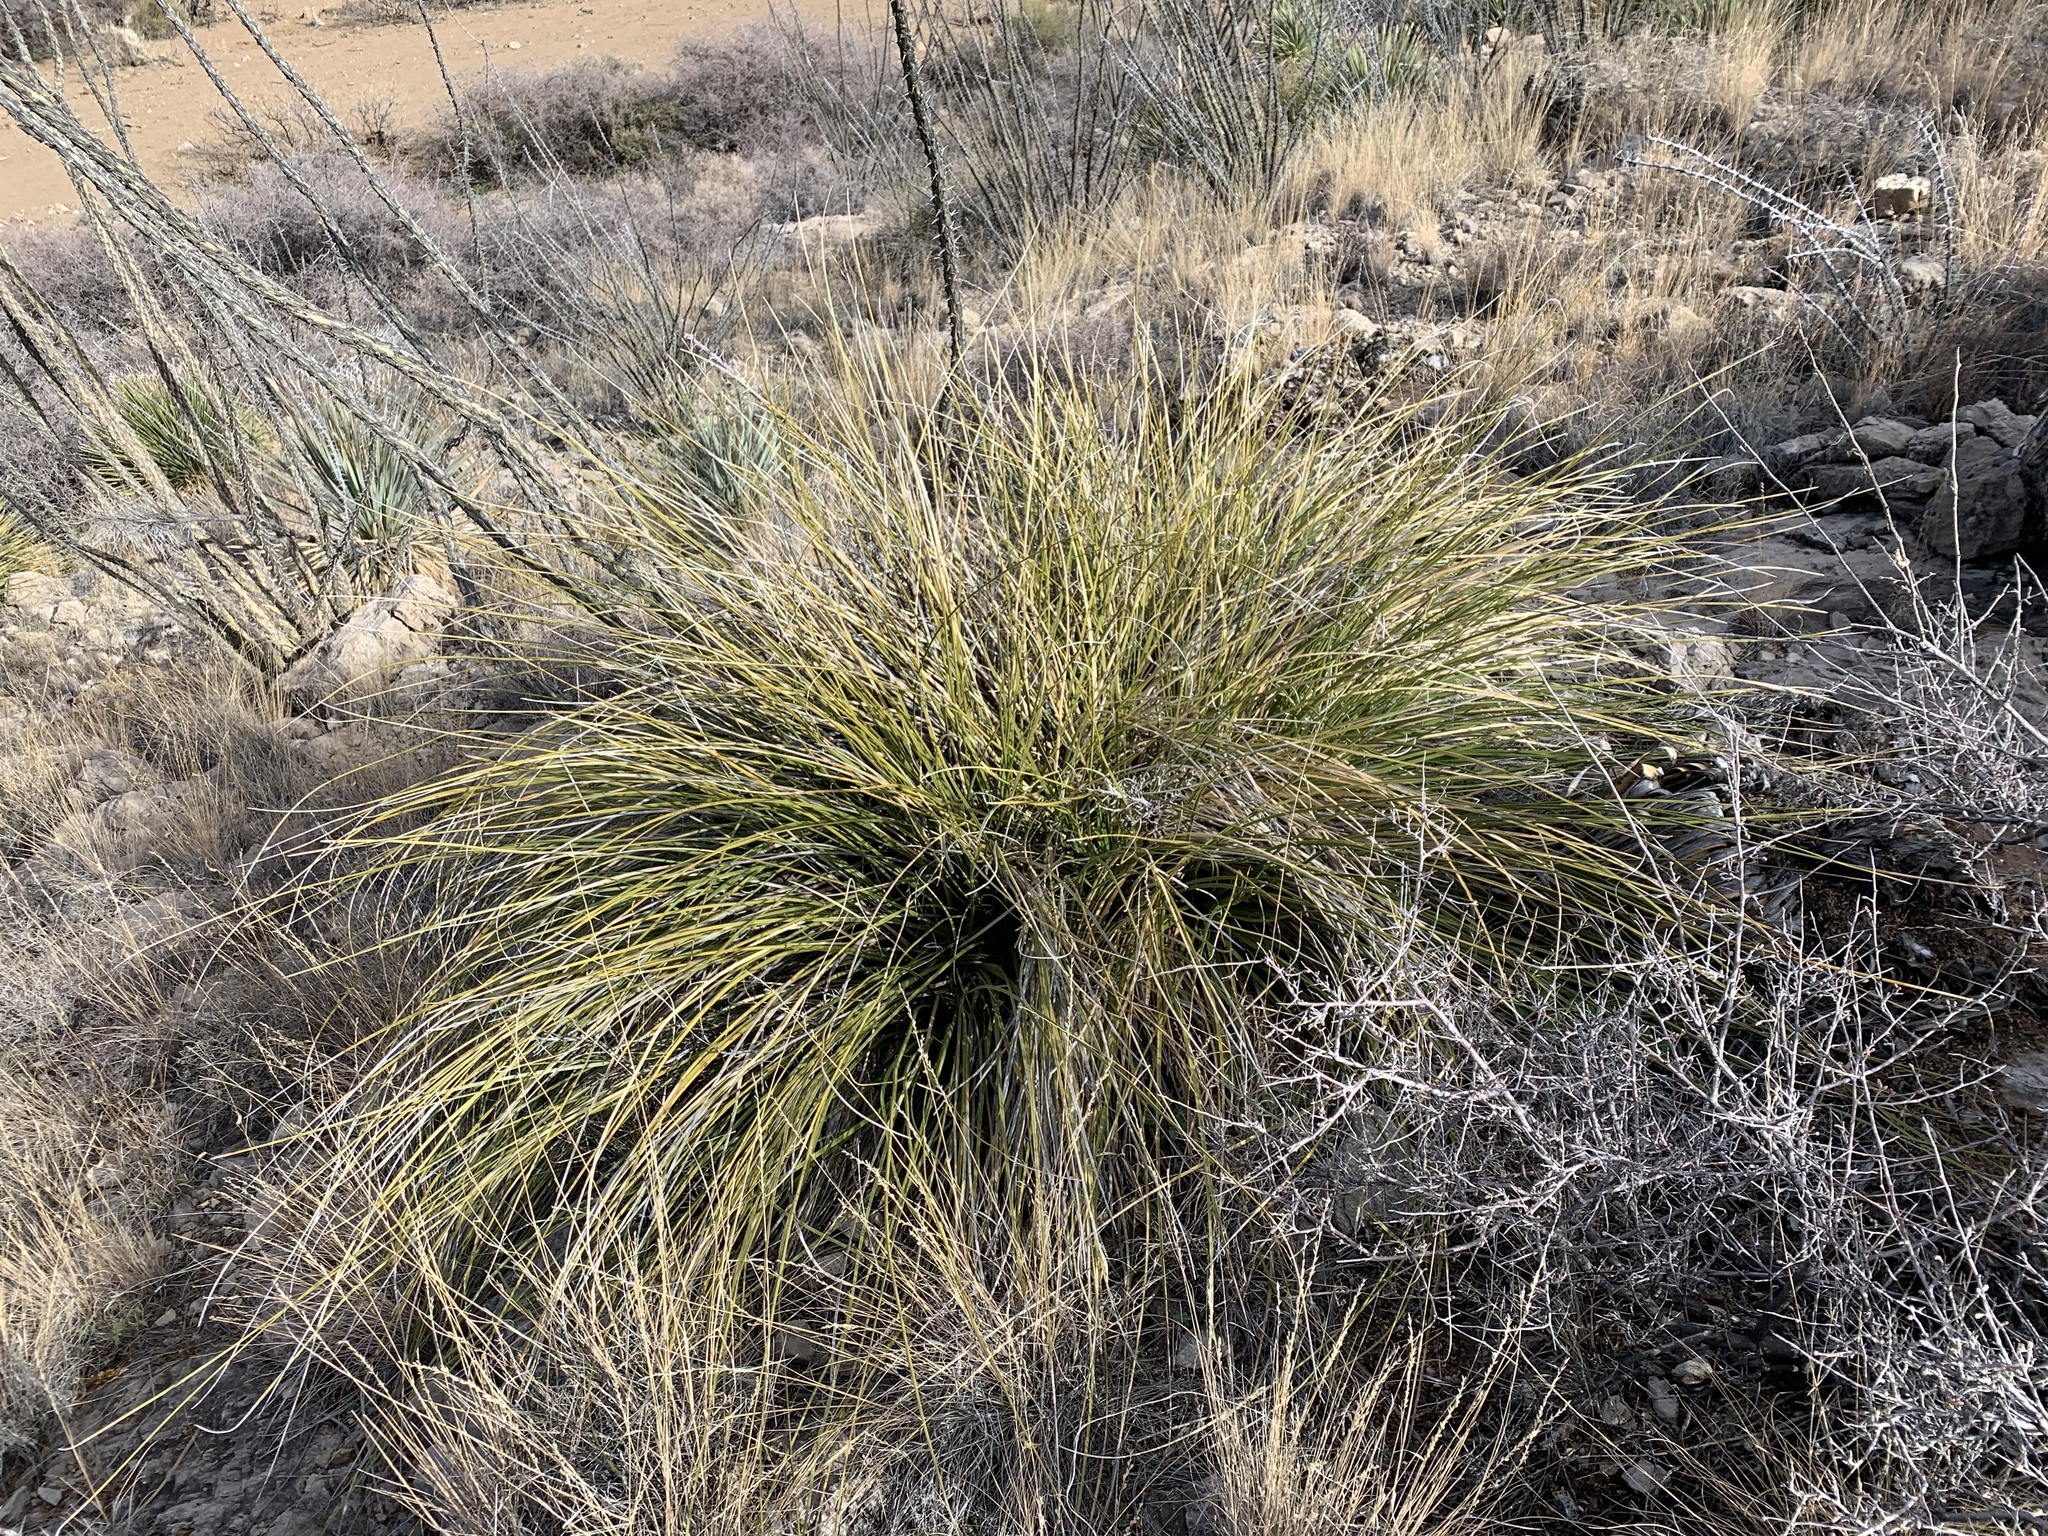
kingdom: Plantae
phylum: Tracheophyta
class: Liliopsida
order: Asparagales
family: Asparagaceae
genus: Nolina
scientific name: Nolina texana
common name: Texas sacahuiste
